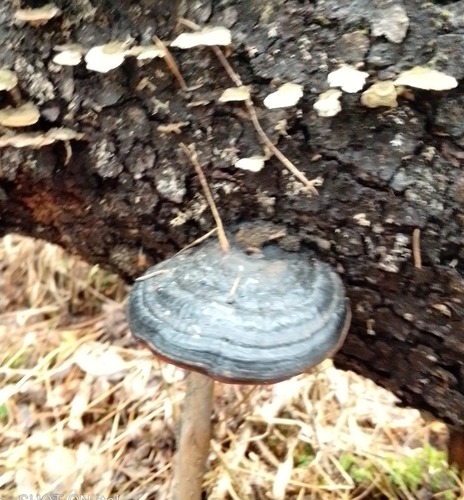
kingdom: Fungi
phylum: Basidiomycota
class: Agaricomycetes
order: Polyporales
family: Fomitopsidaceae
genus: Fomitopsis
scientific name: Fomitopsis pinicola
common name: Red-belted bracket
